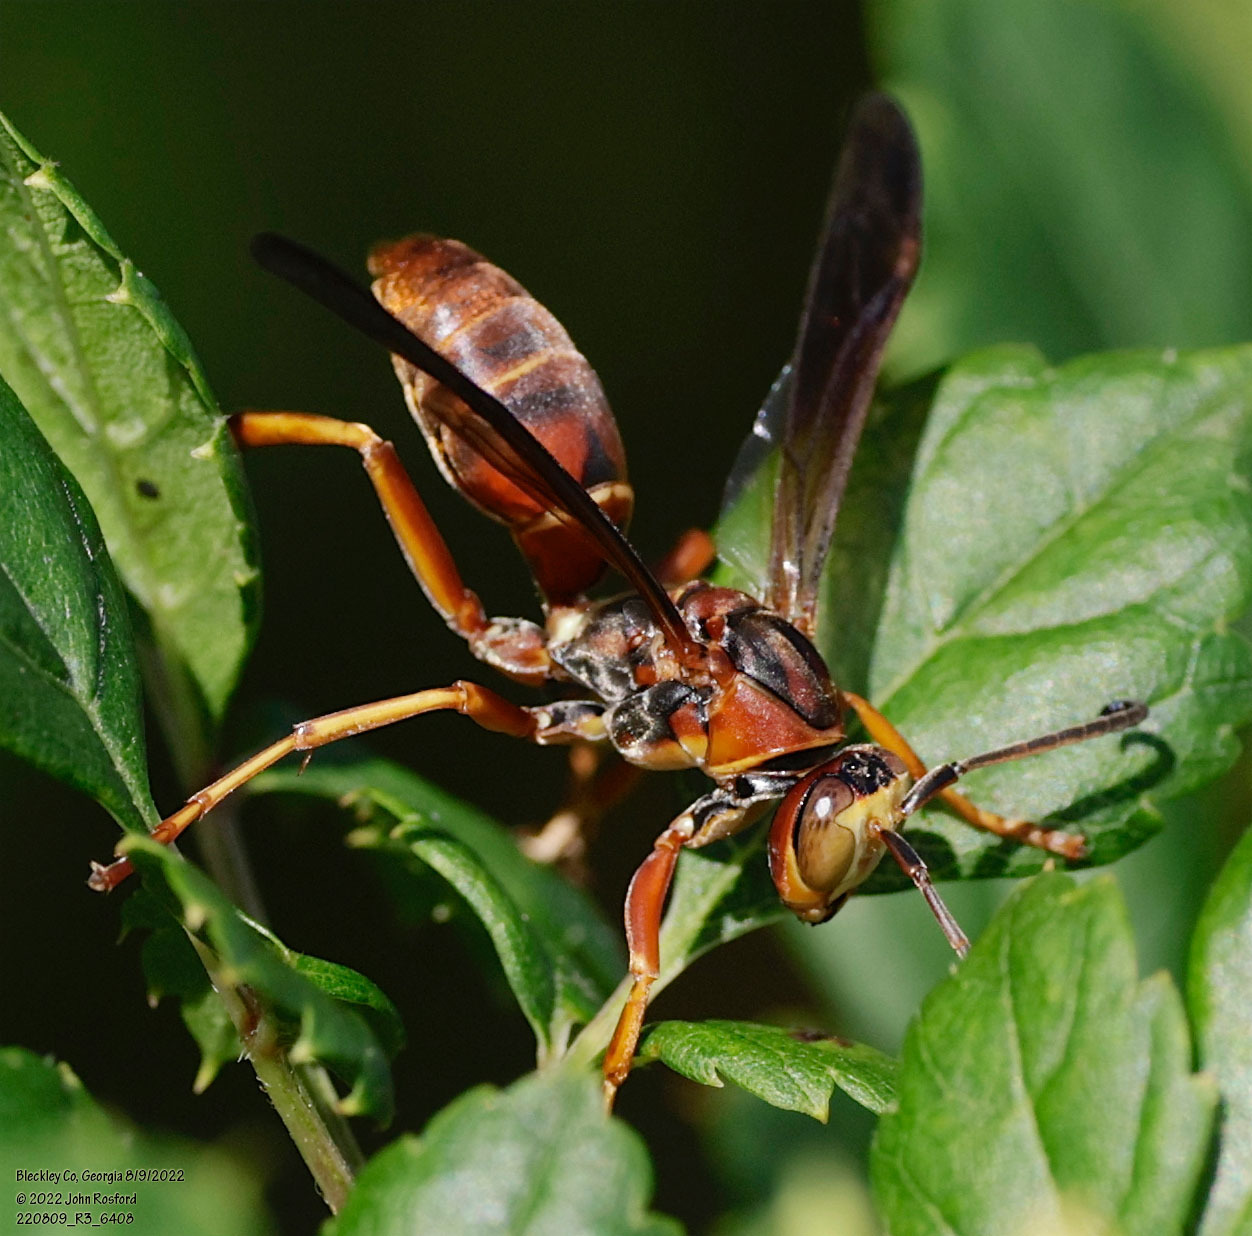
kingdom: Animalia
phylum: Arthropoda
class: Insecta
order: Hymenoptera
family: Eumenidae
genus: Polistes
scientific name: Polistes fuscatus
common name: Dark paper wasp
